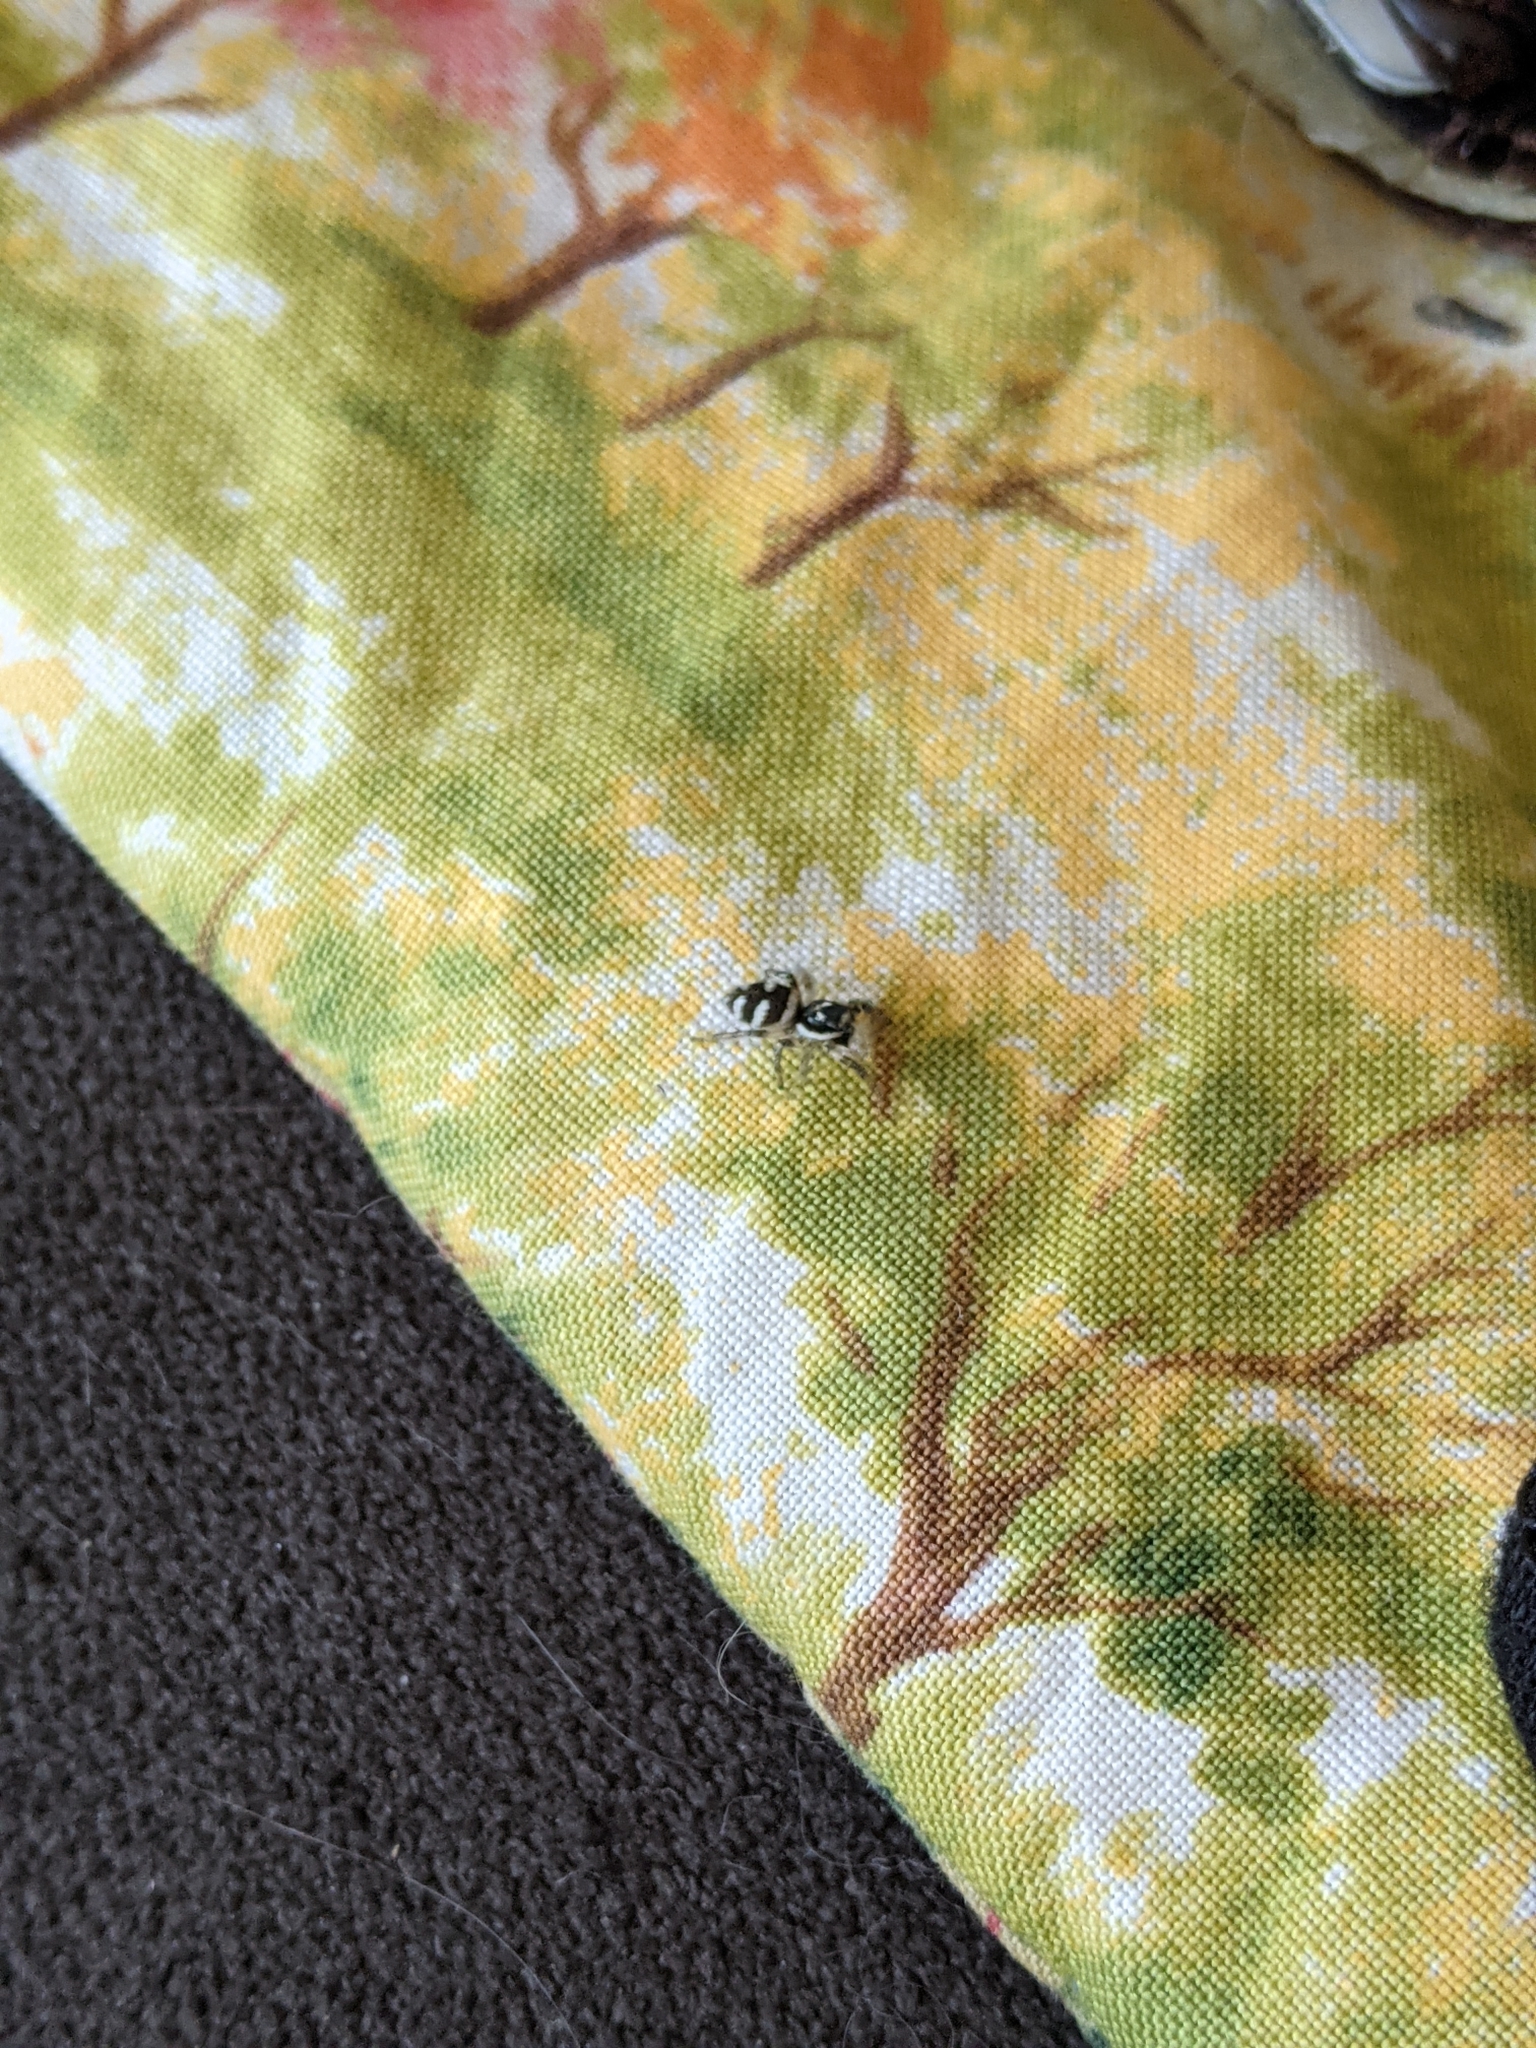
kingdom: Animalia
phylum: Arthropoda
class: Arachnida
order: Araneae
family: Salticidae
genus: Salticus
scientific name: Salticus scenicus
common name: Zebra jumper
